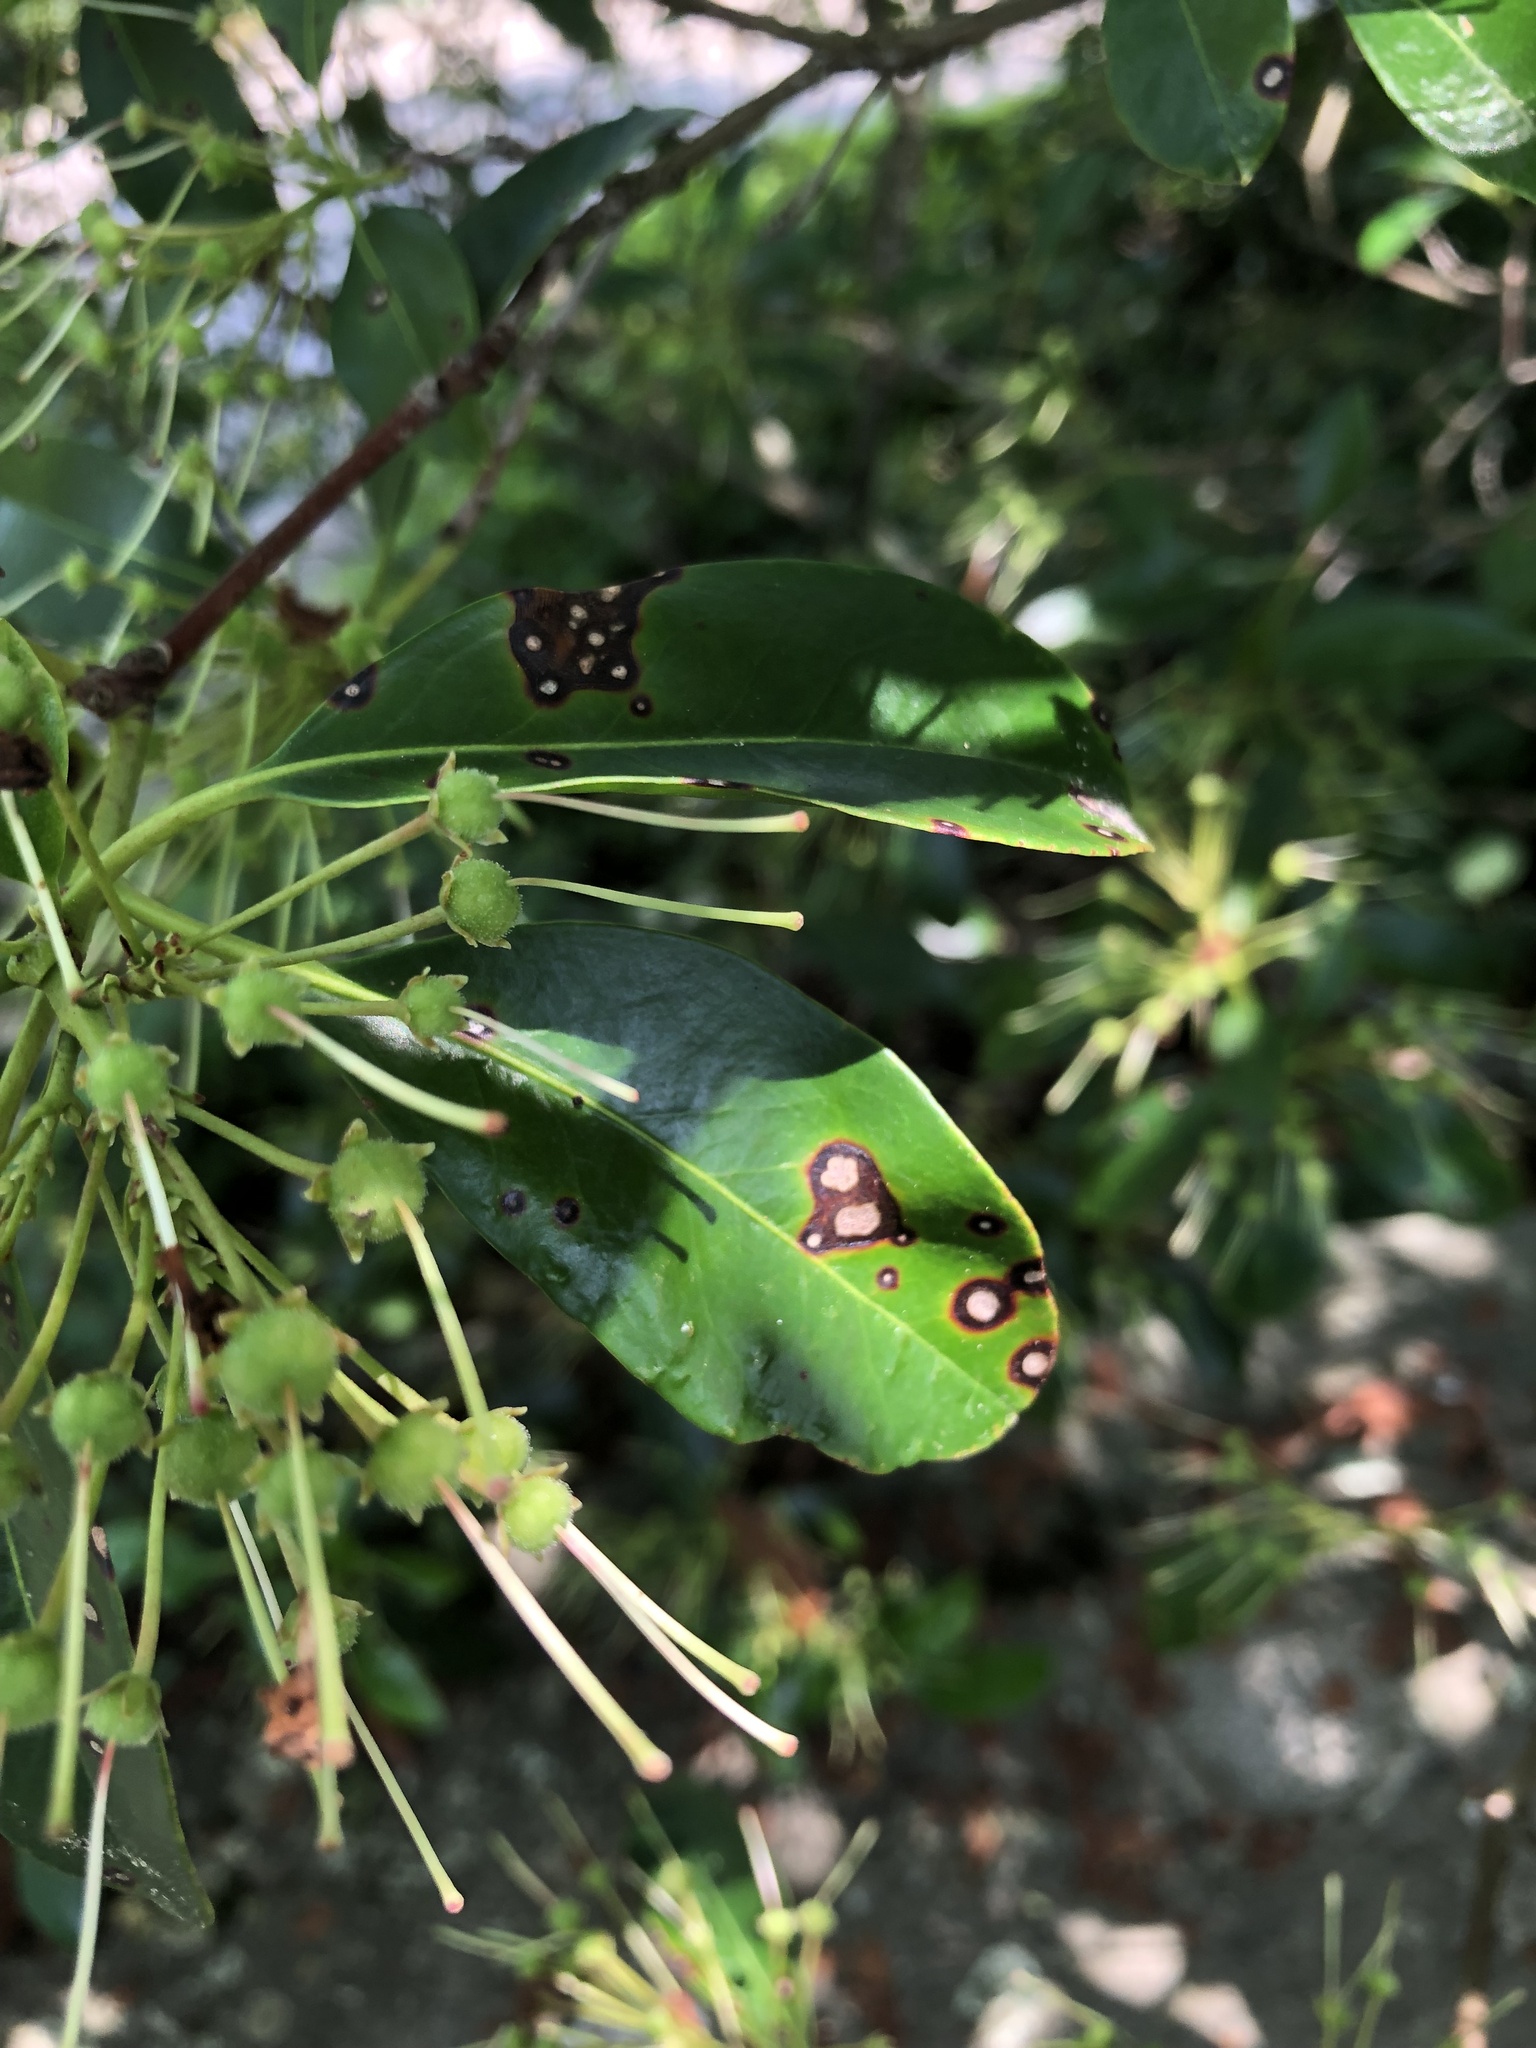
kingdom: Fungi
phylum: Ascomycota
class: Dothideomycetes
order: Mycosphaerellales
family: Mycosphaerellaceae
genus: Mycosphaerella
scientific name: Mycosphaerella colorata
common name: Mountain laurel leaf spot
